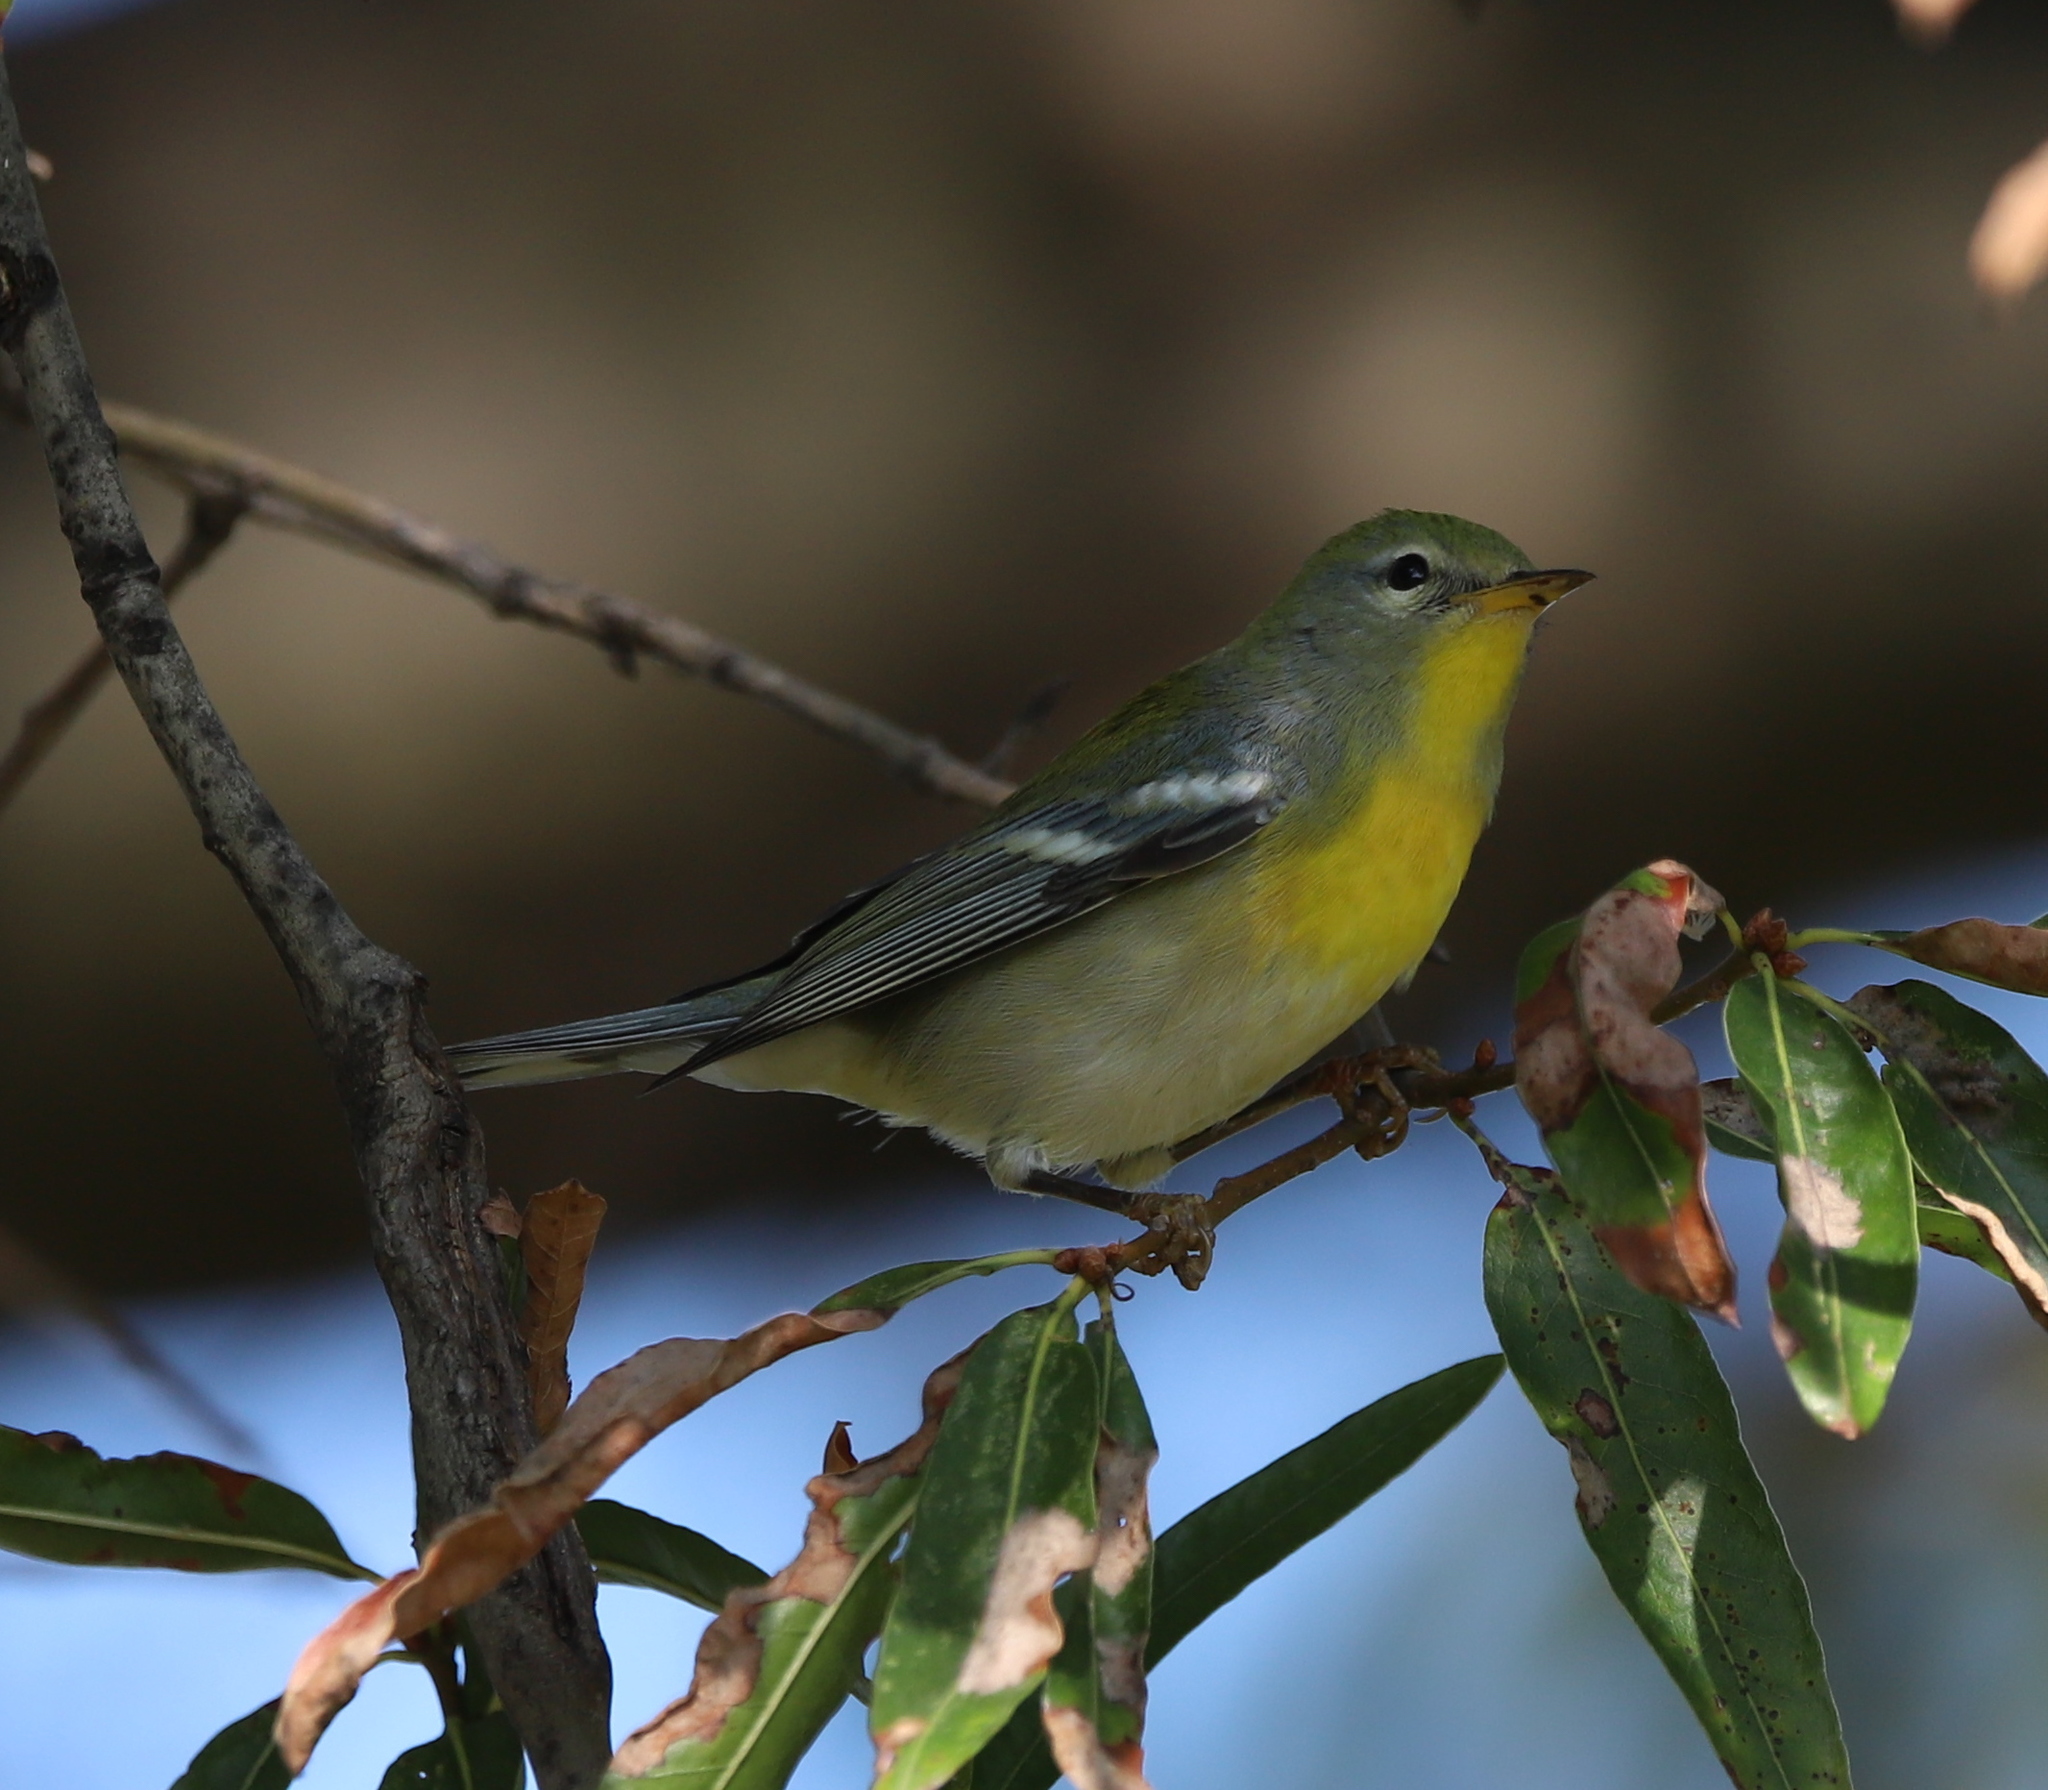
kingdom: Animalia
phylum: Chordata
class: Aves
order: Passeriformes
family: Parulidae
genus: Setophaga
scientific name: Setophaga americana
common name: Northern parula
